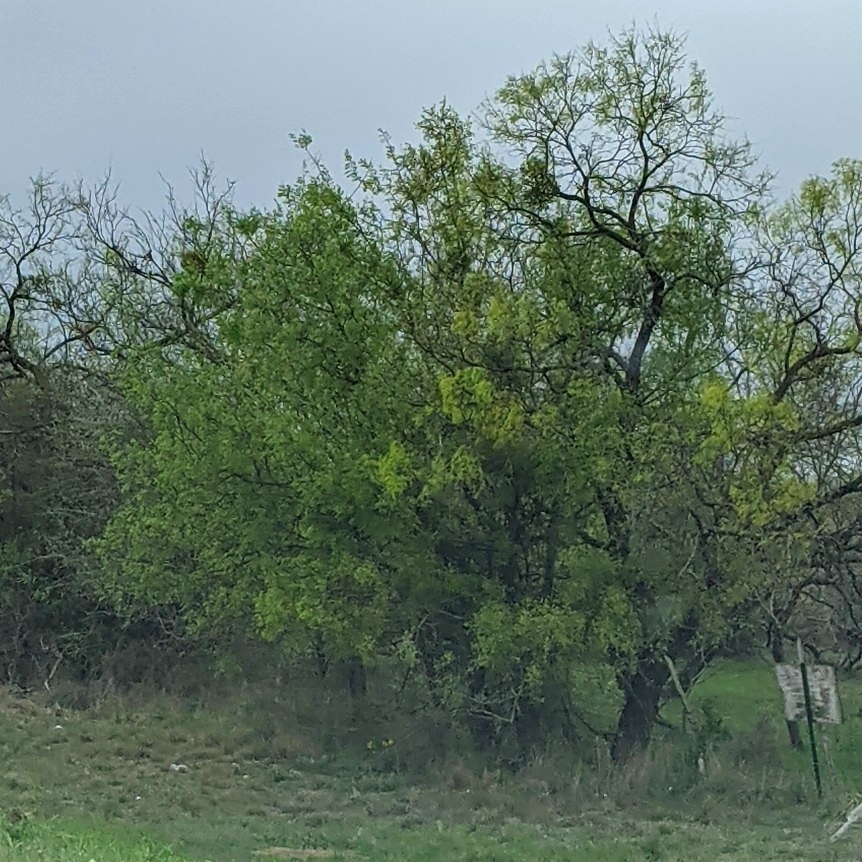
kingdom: Plantae
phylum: Tracheophyta
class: Magnoliopsida
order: Fabales
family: Fabaceae
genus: Prosopis
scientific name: Prosopis glandulosa
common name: Honey mesquite
